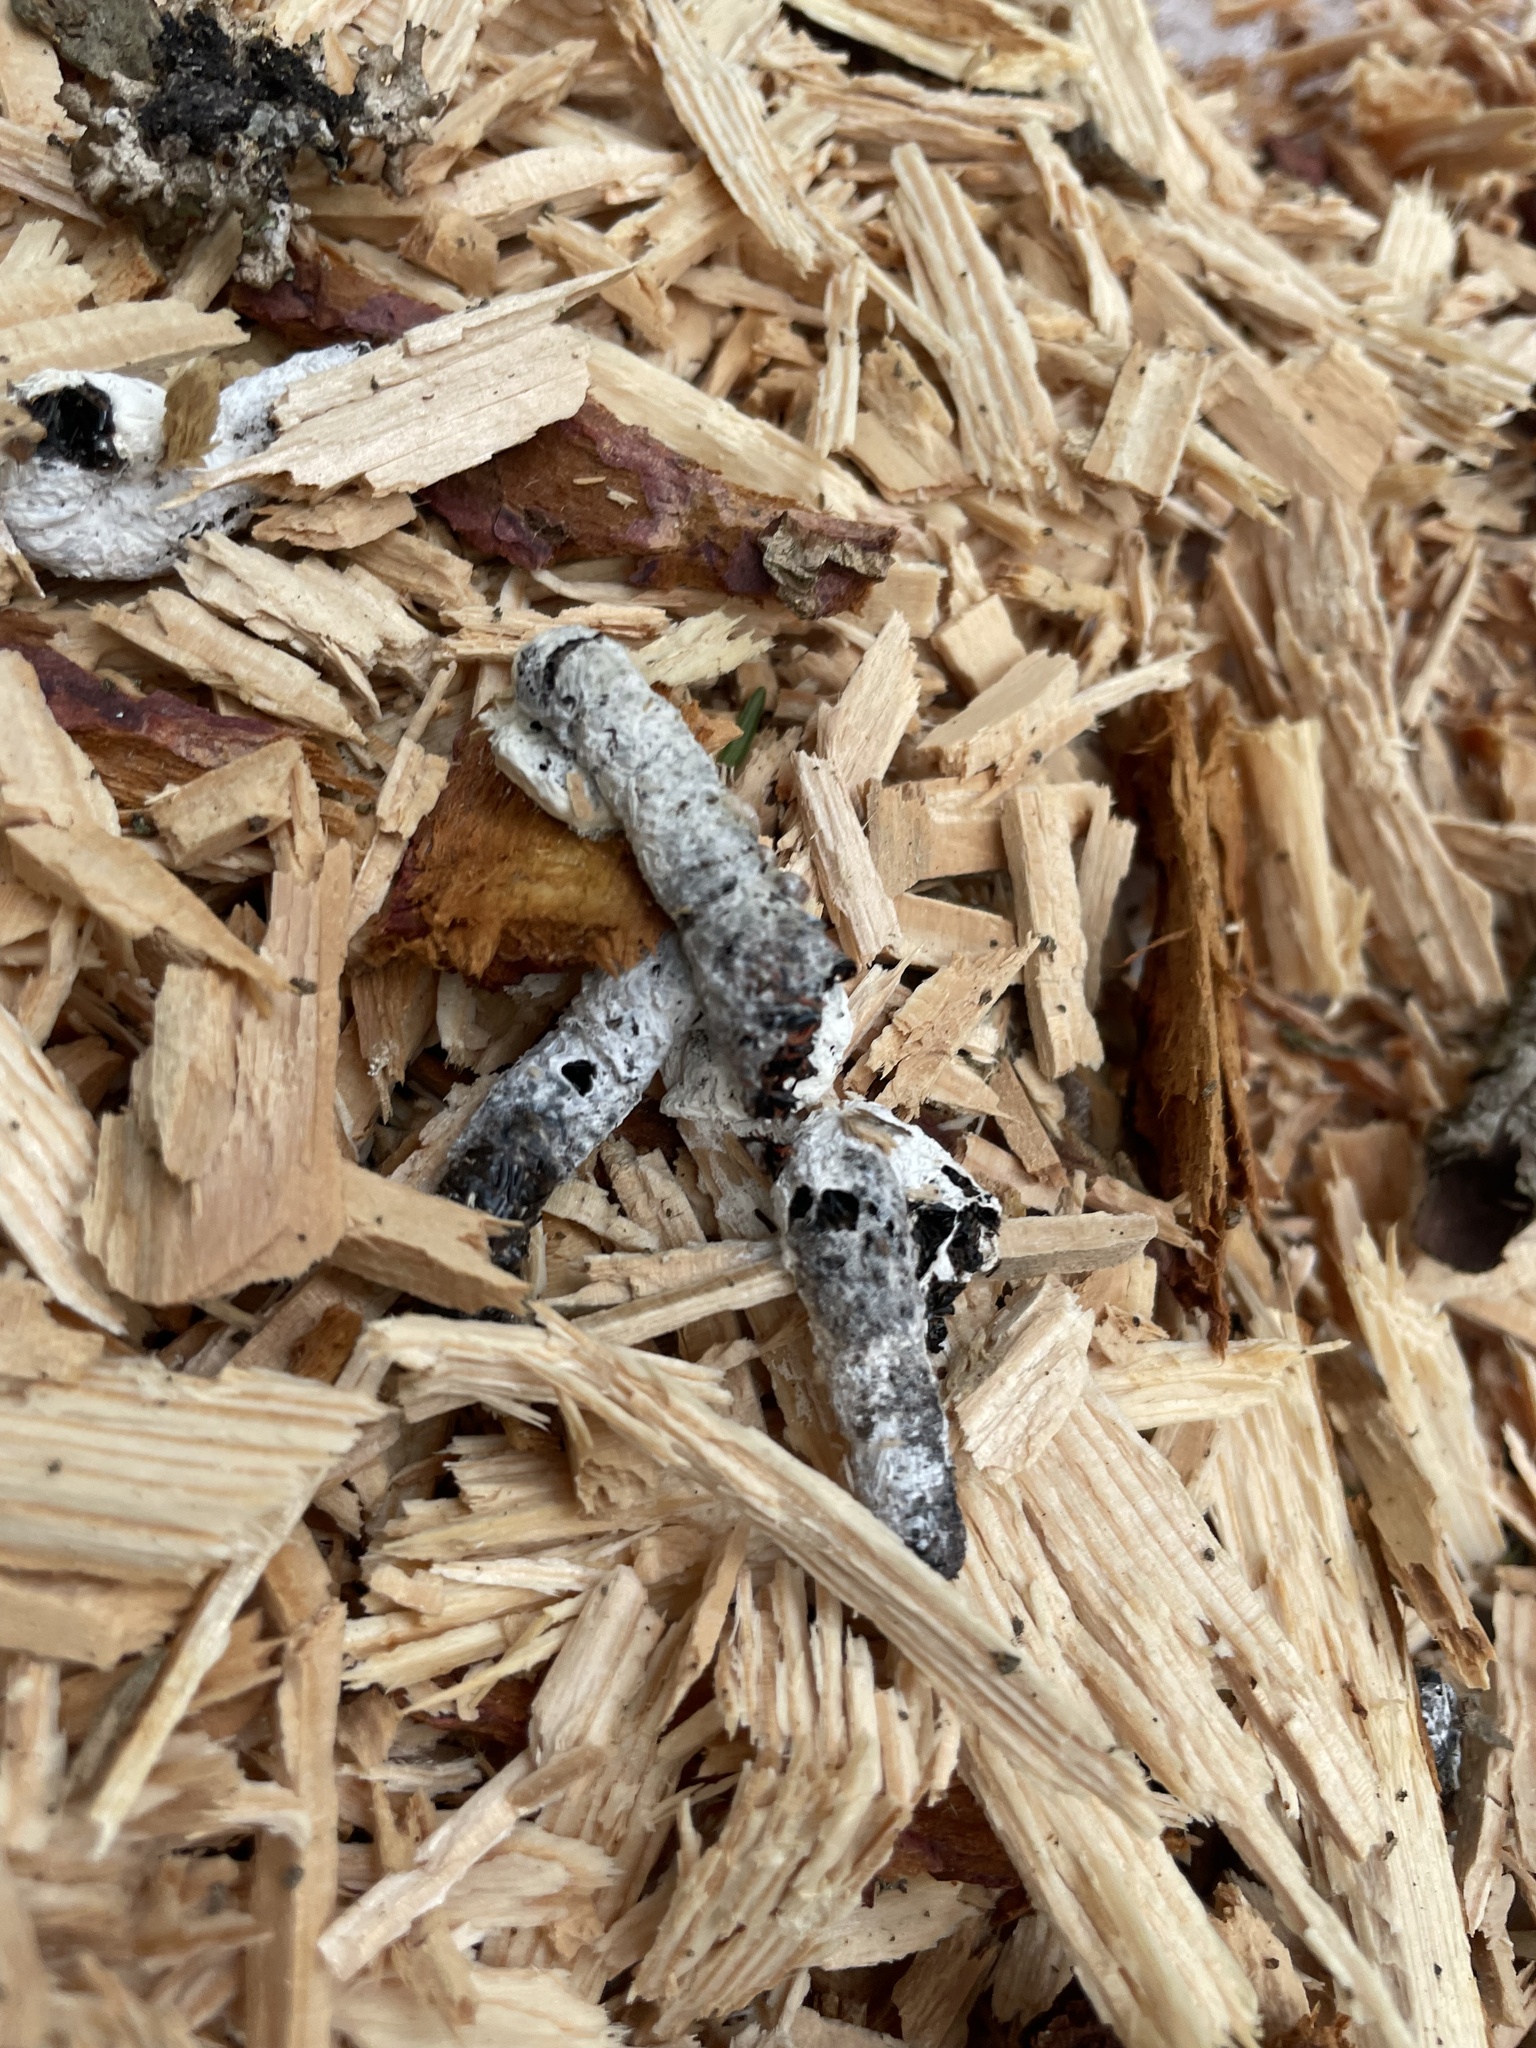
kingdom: Animalia
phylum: Chordata
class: Aves
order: Piciformes
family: Picidae
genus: Dryocopus
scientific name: Dryocopus pileatus
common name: Pileated woodpecker
